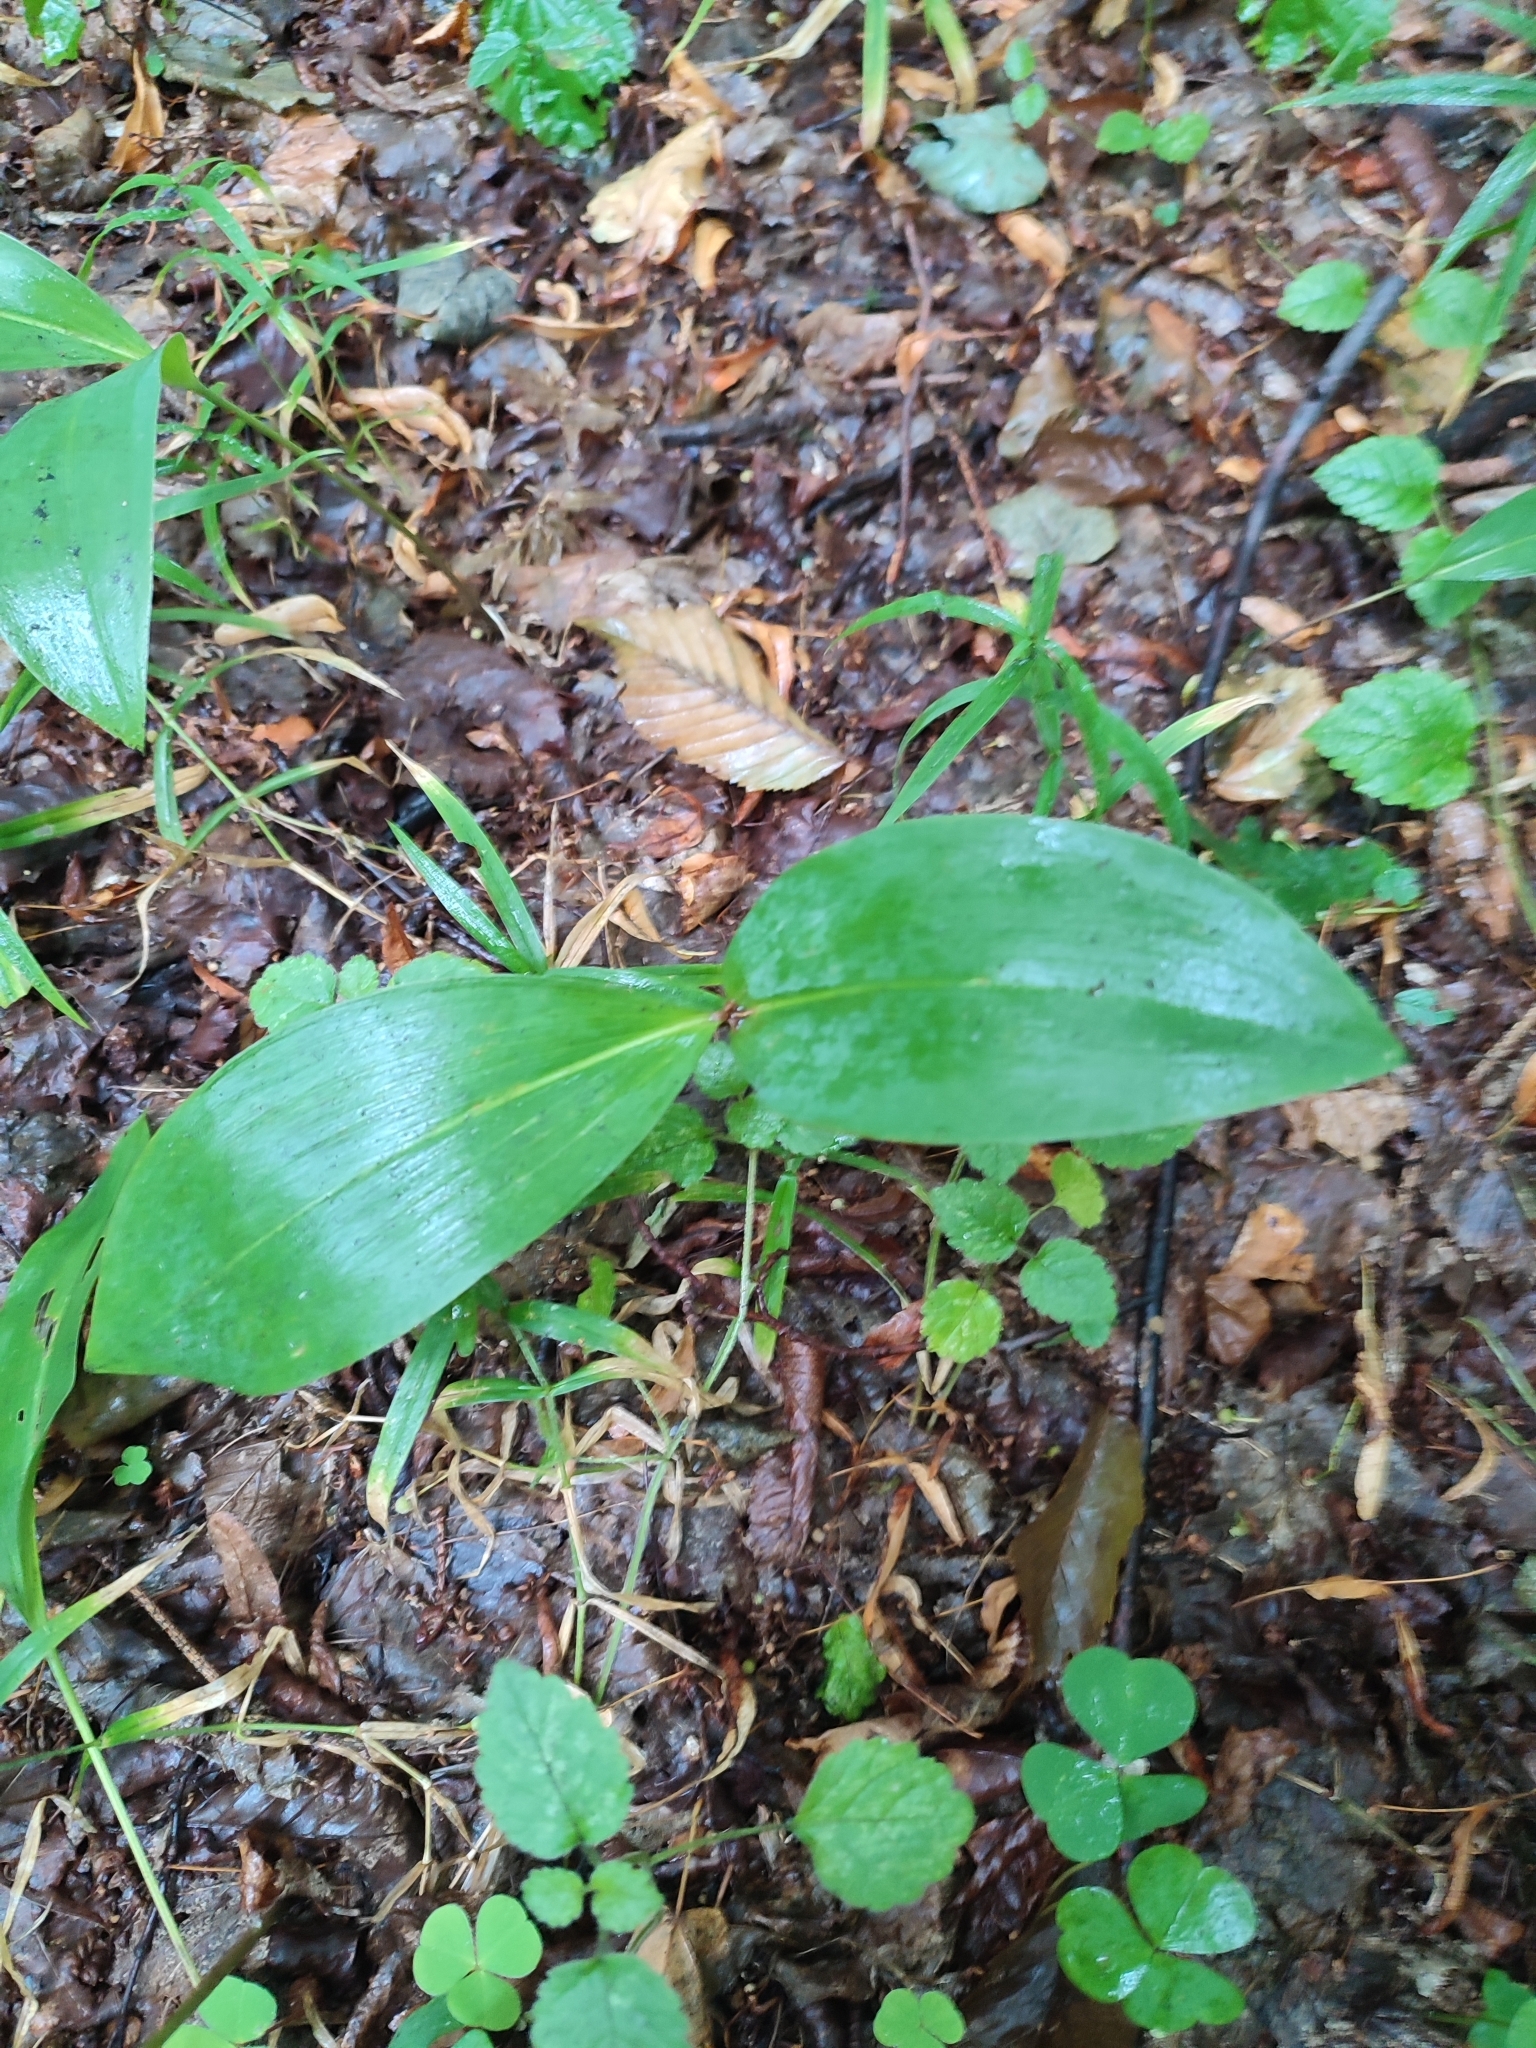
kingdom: Plantae
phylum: Tracheophyta
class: Liliopsida
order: Asparagales
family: Asparagaceae
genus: Convallaria
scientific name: Convallaria majalis
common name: Lily-of-the-valley
